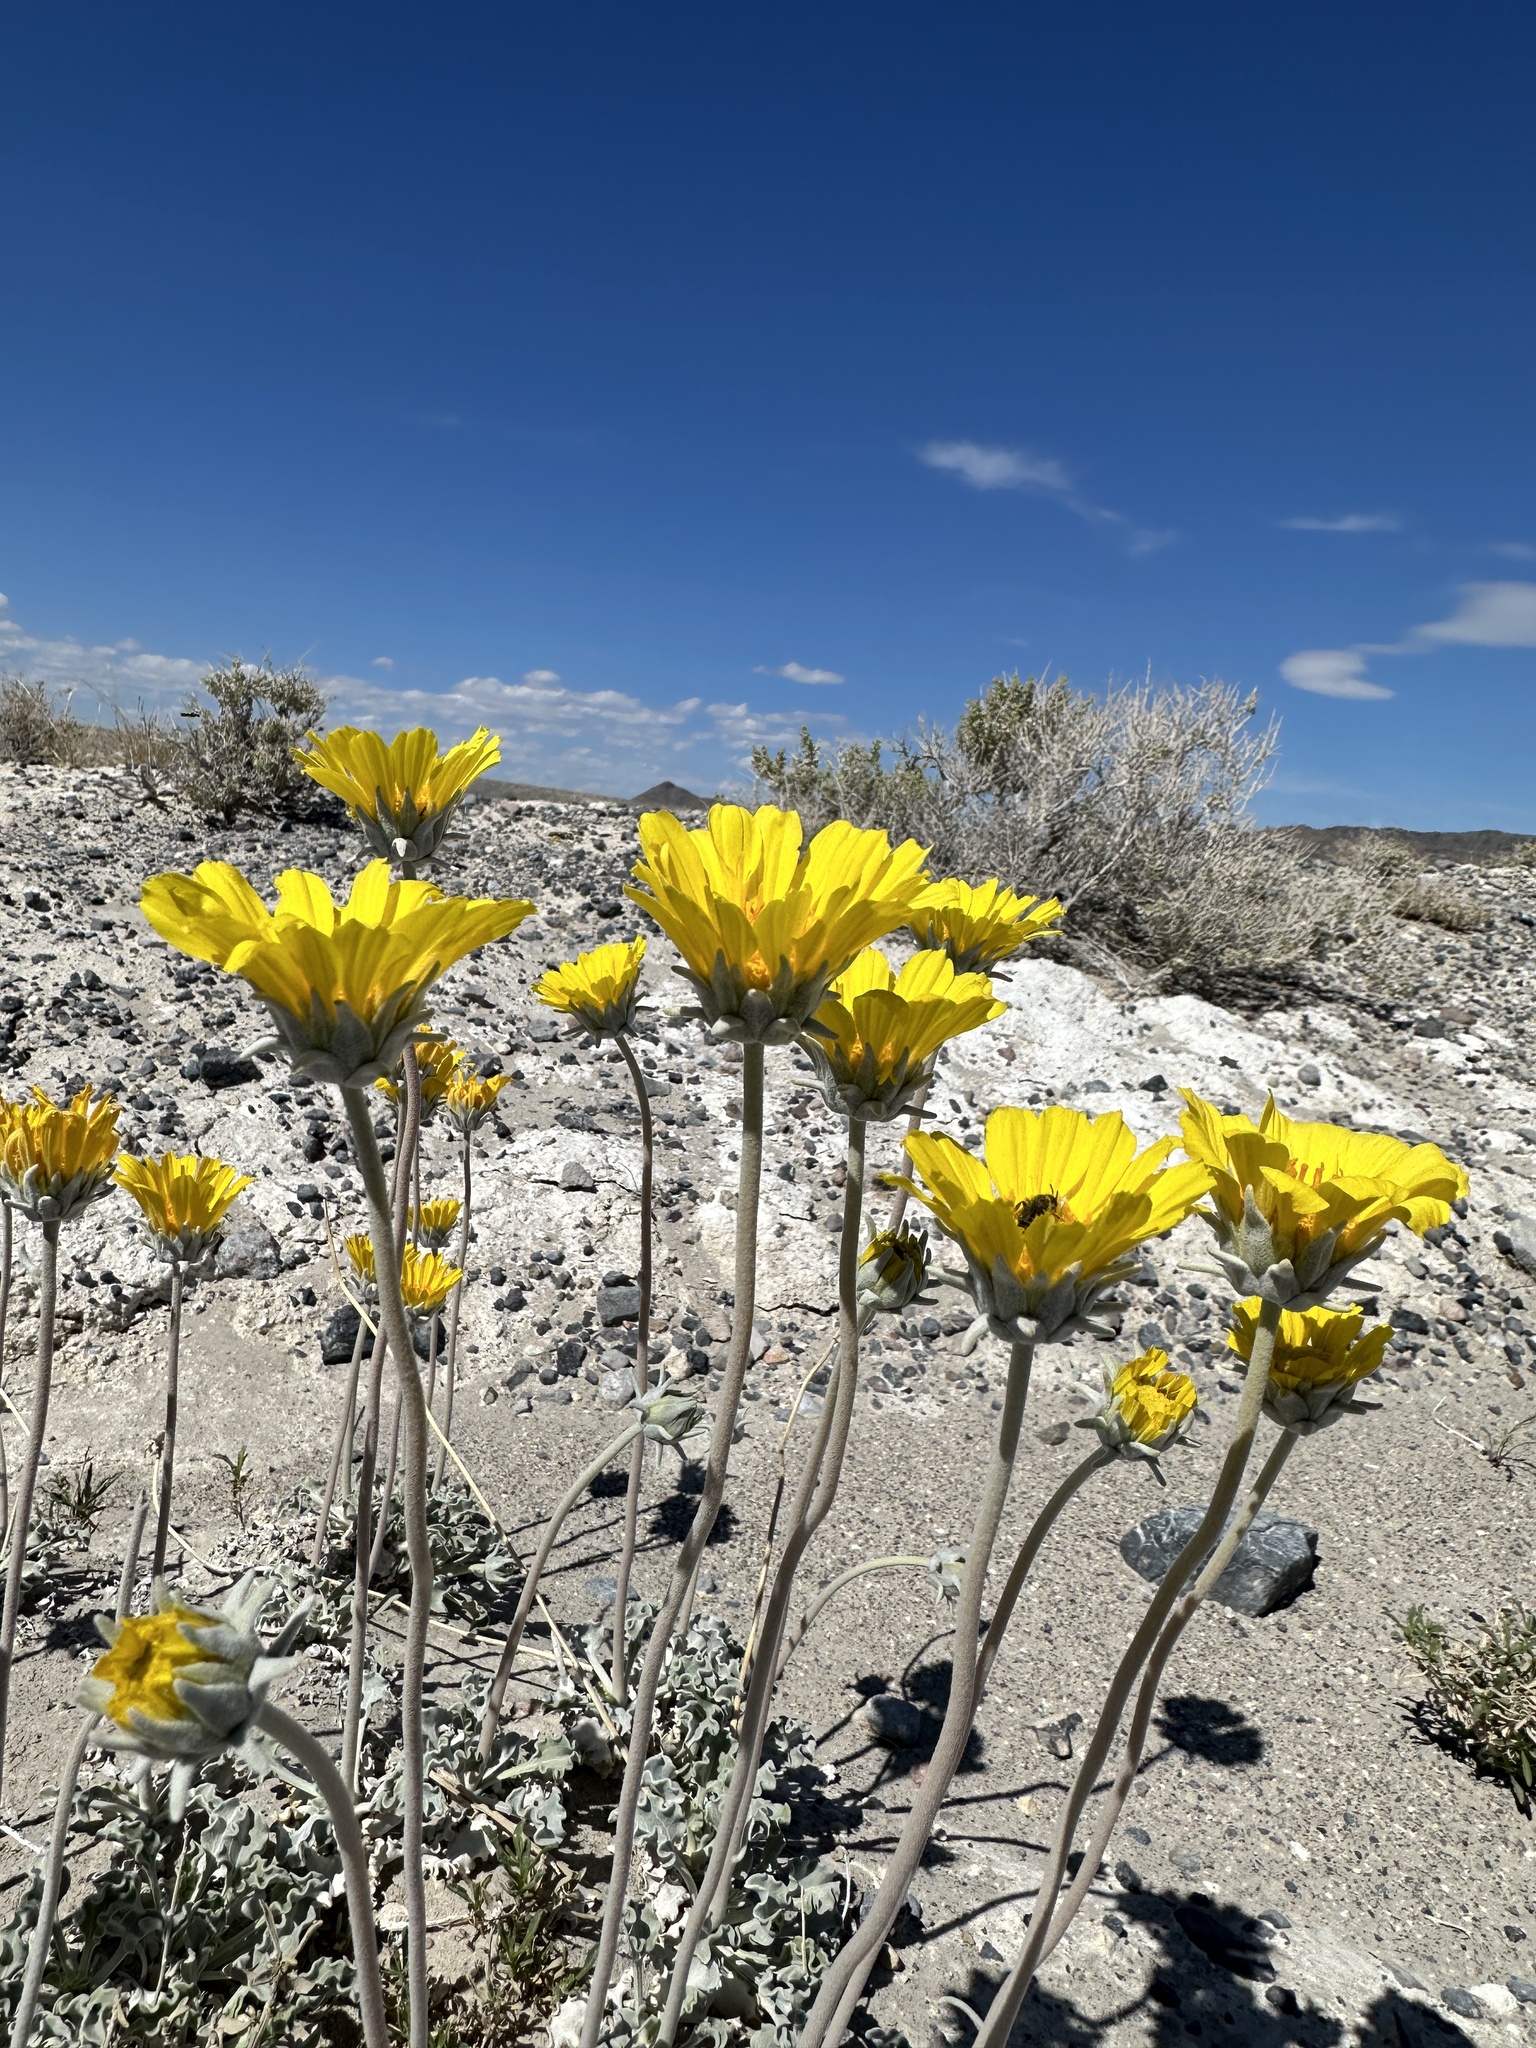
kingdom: Plantae
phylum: Tracheophyta
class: Magnoliopsida
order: Asterales
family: Asteraceae
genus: Enceliopsis
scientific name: Enceliopsis nudicaulis
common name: Naked-stem daisy
